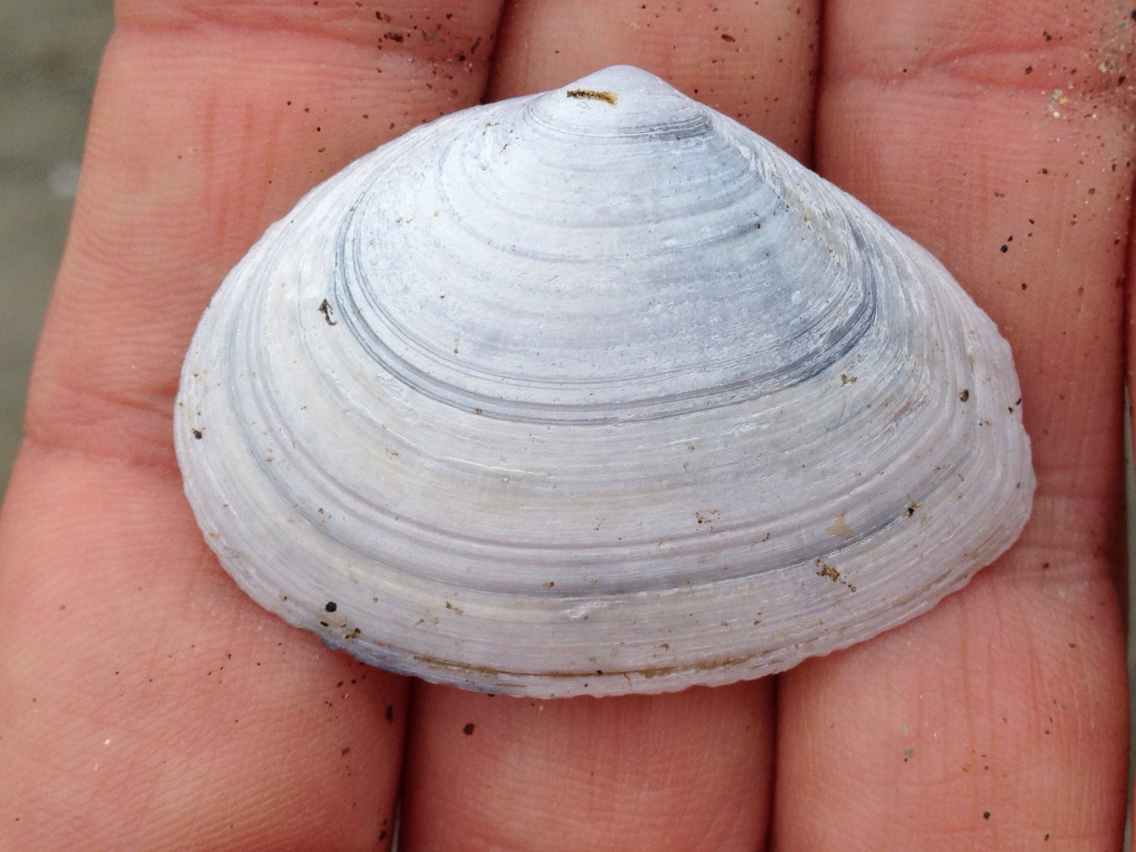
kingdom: Animalia
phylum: Mollusca
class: Bivalvia
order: Cardiida
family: Tellinidae
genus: Macoma
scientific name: Macoma nasuta
